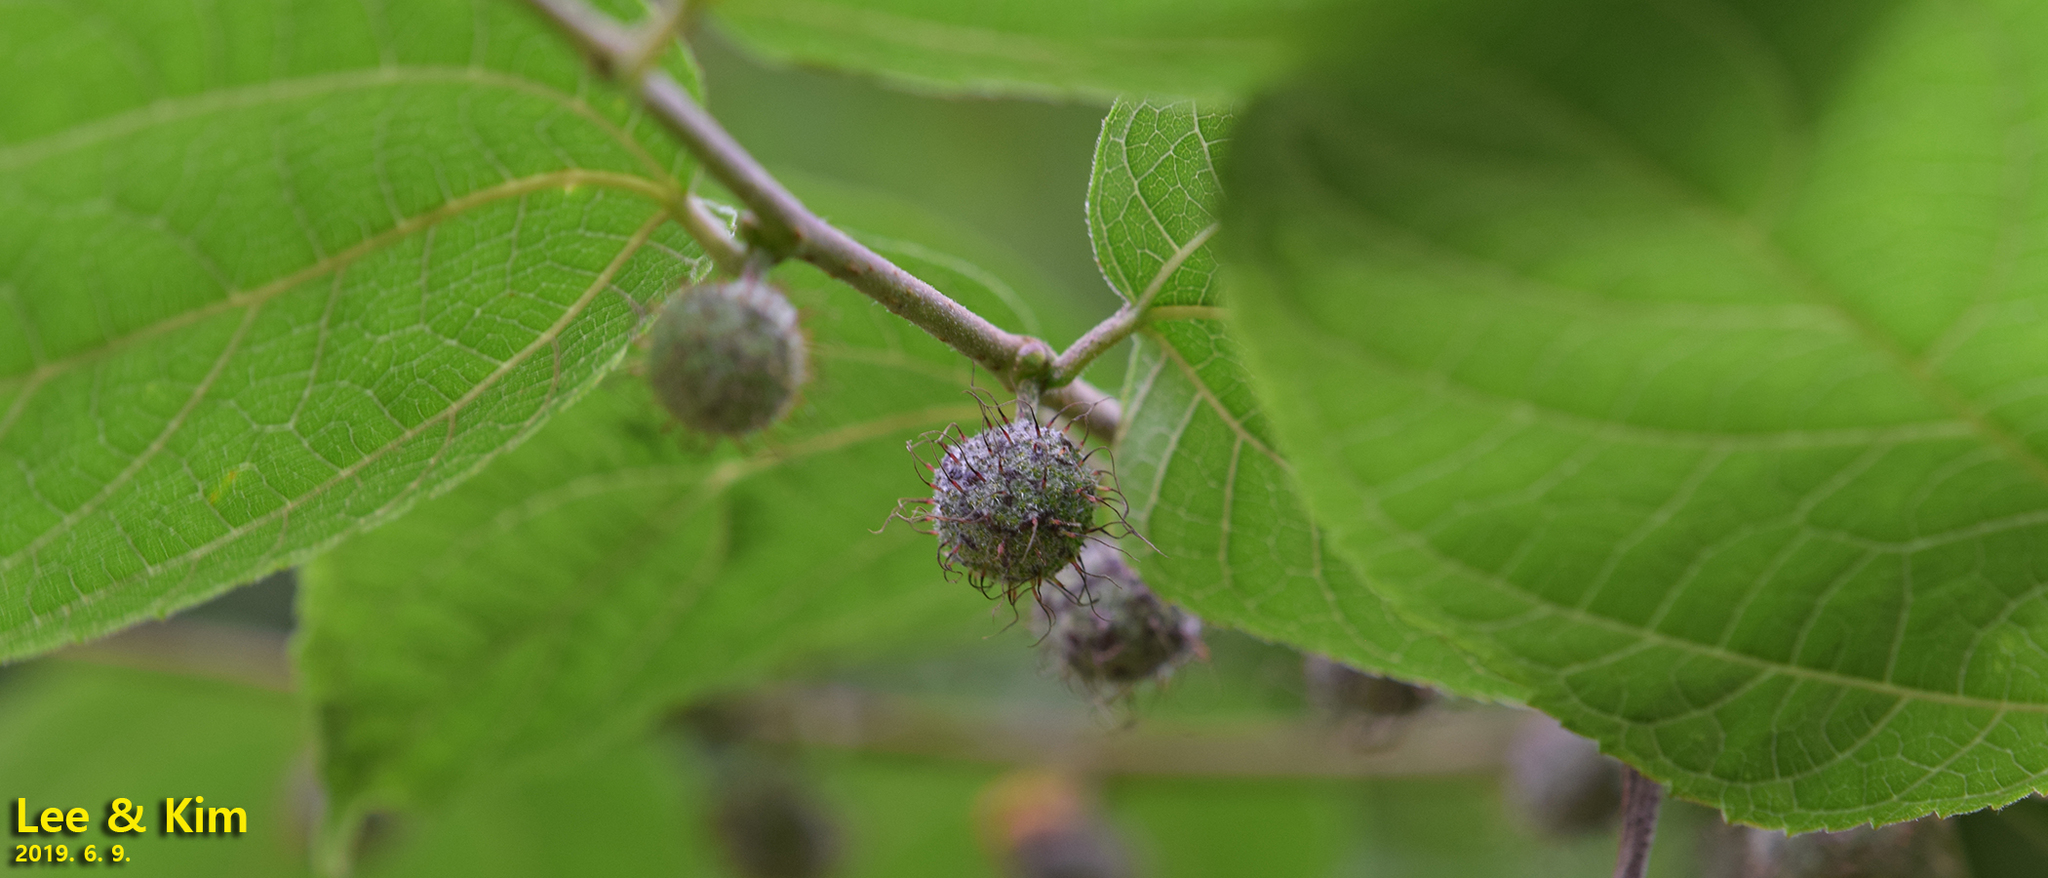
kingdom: Plantae
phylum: Tracheophyta
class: Magnoliopsida
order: Rosales
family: Moraceae
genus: Broussonetia
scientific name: Broussonetia papyrifera
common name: Paper mulberry
